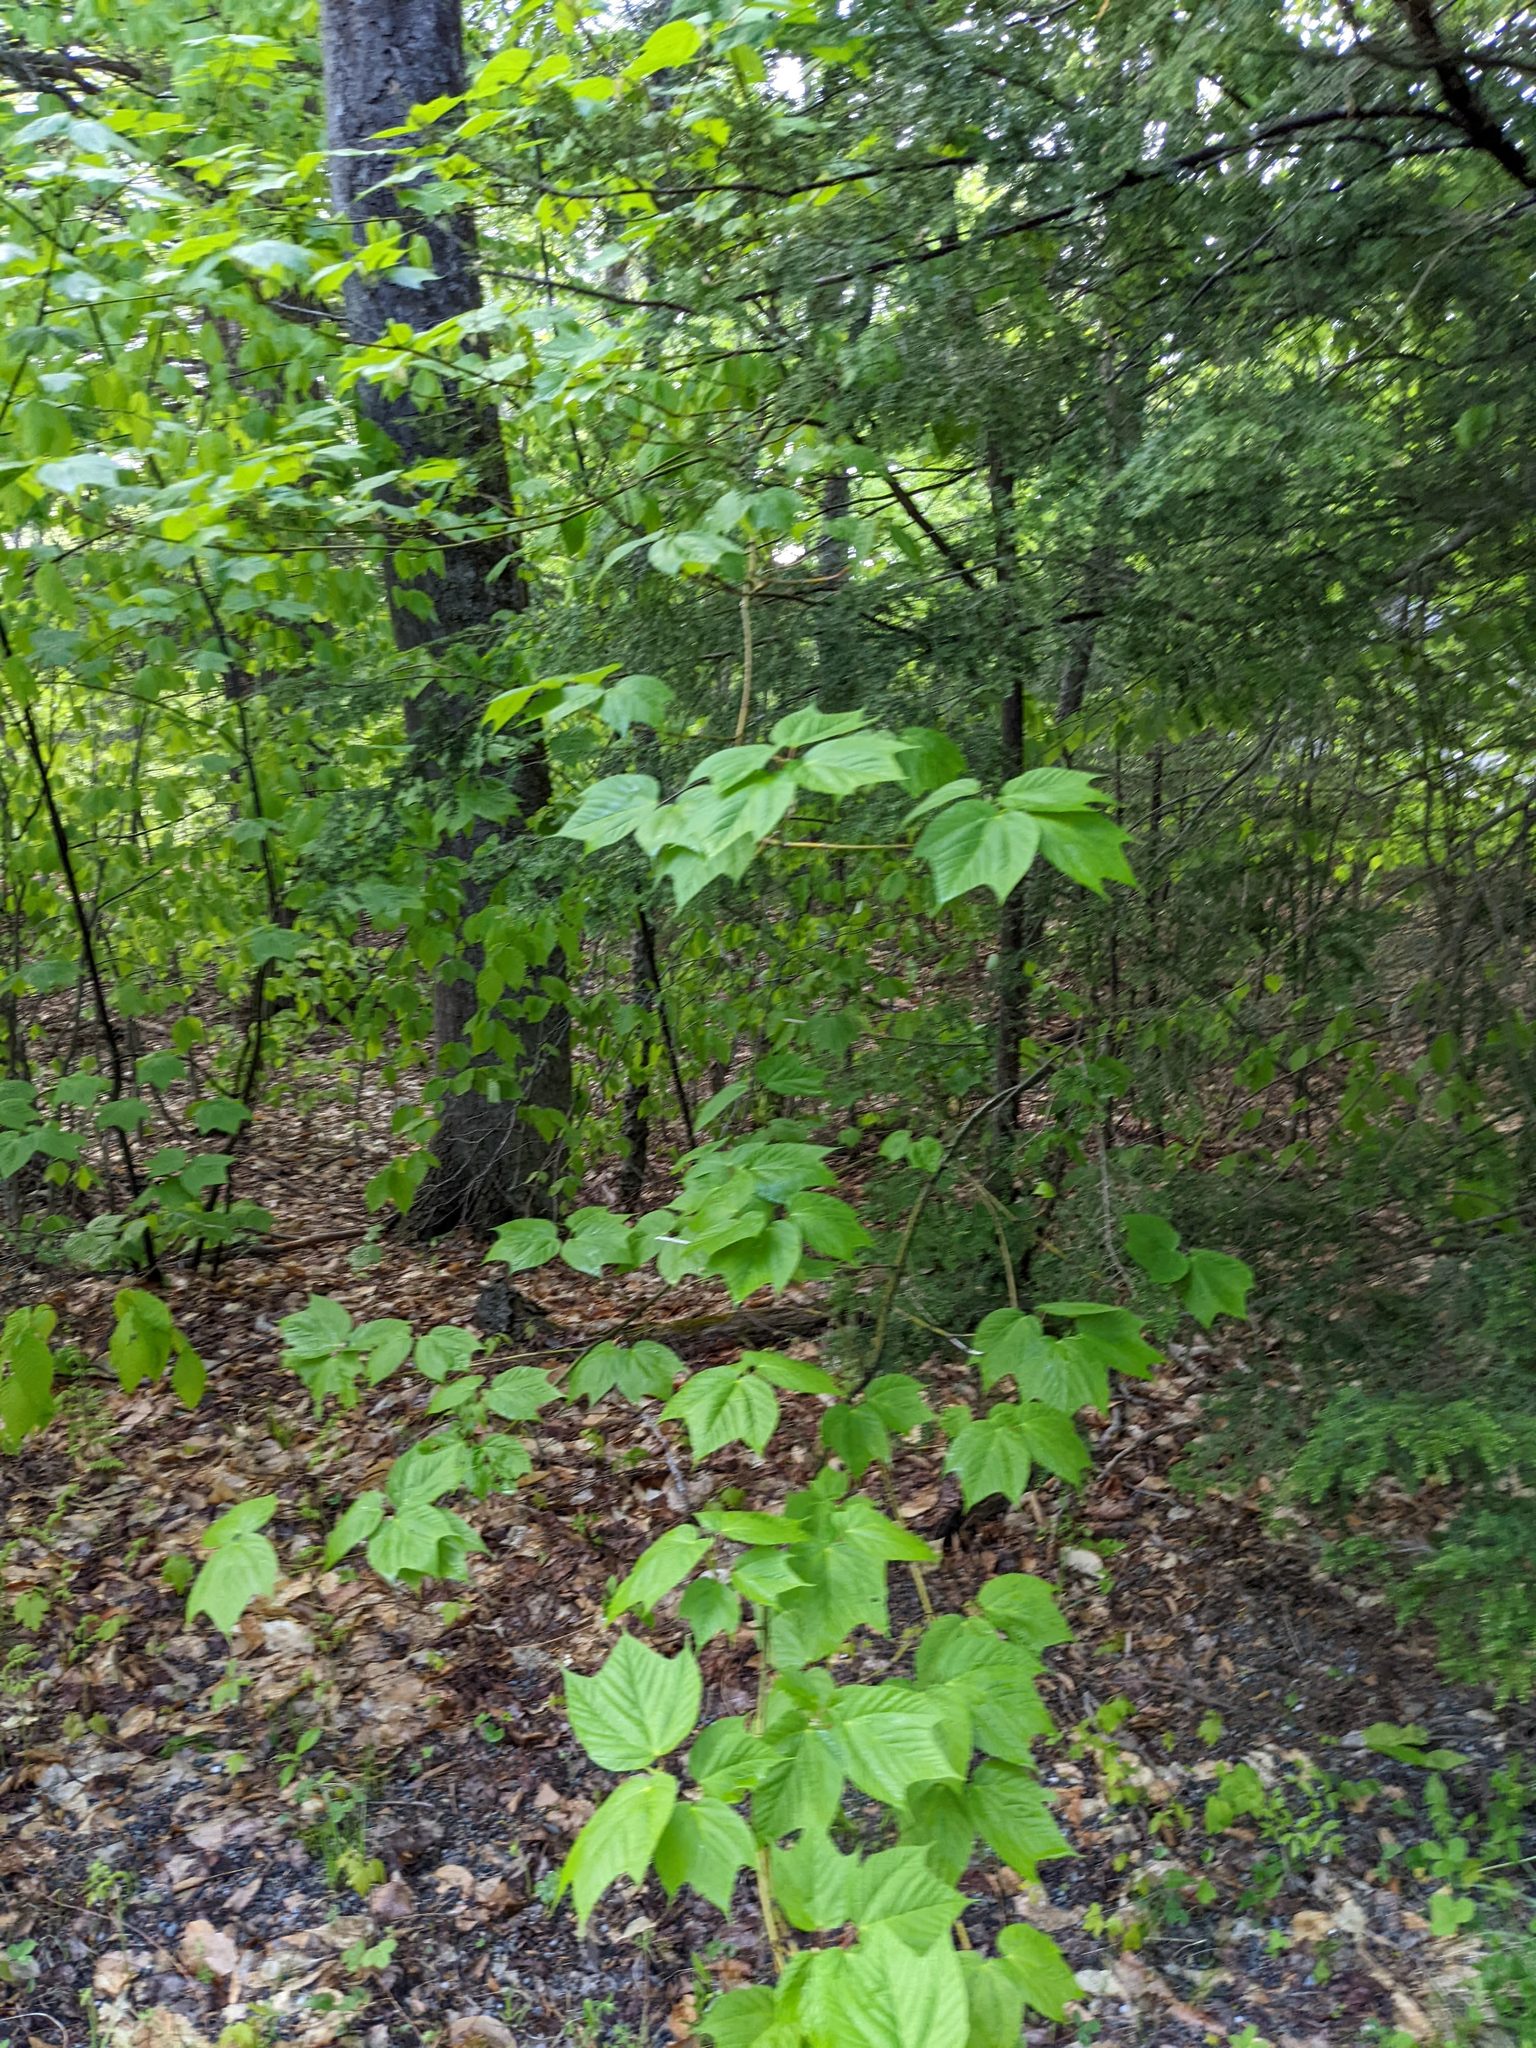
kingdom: Plantae
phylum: Tracheophyta
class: Magnoliopsida
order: Sapindales
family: Sapindaceae
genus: Acer
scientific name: Acer pensylvanicum
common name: Moosewood
